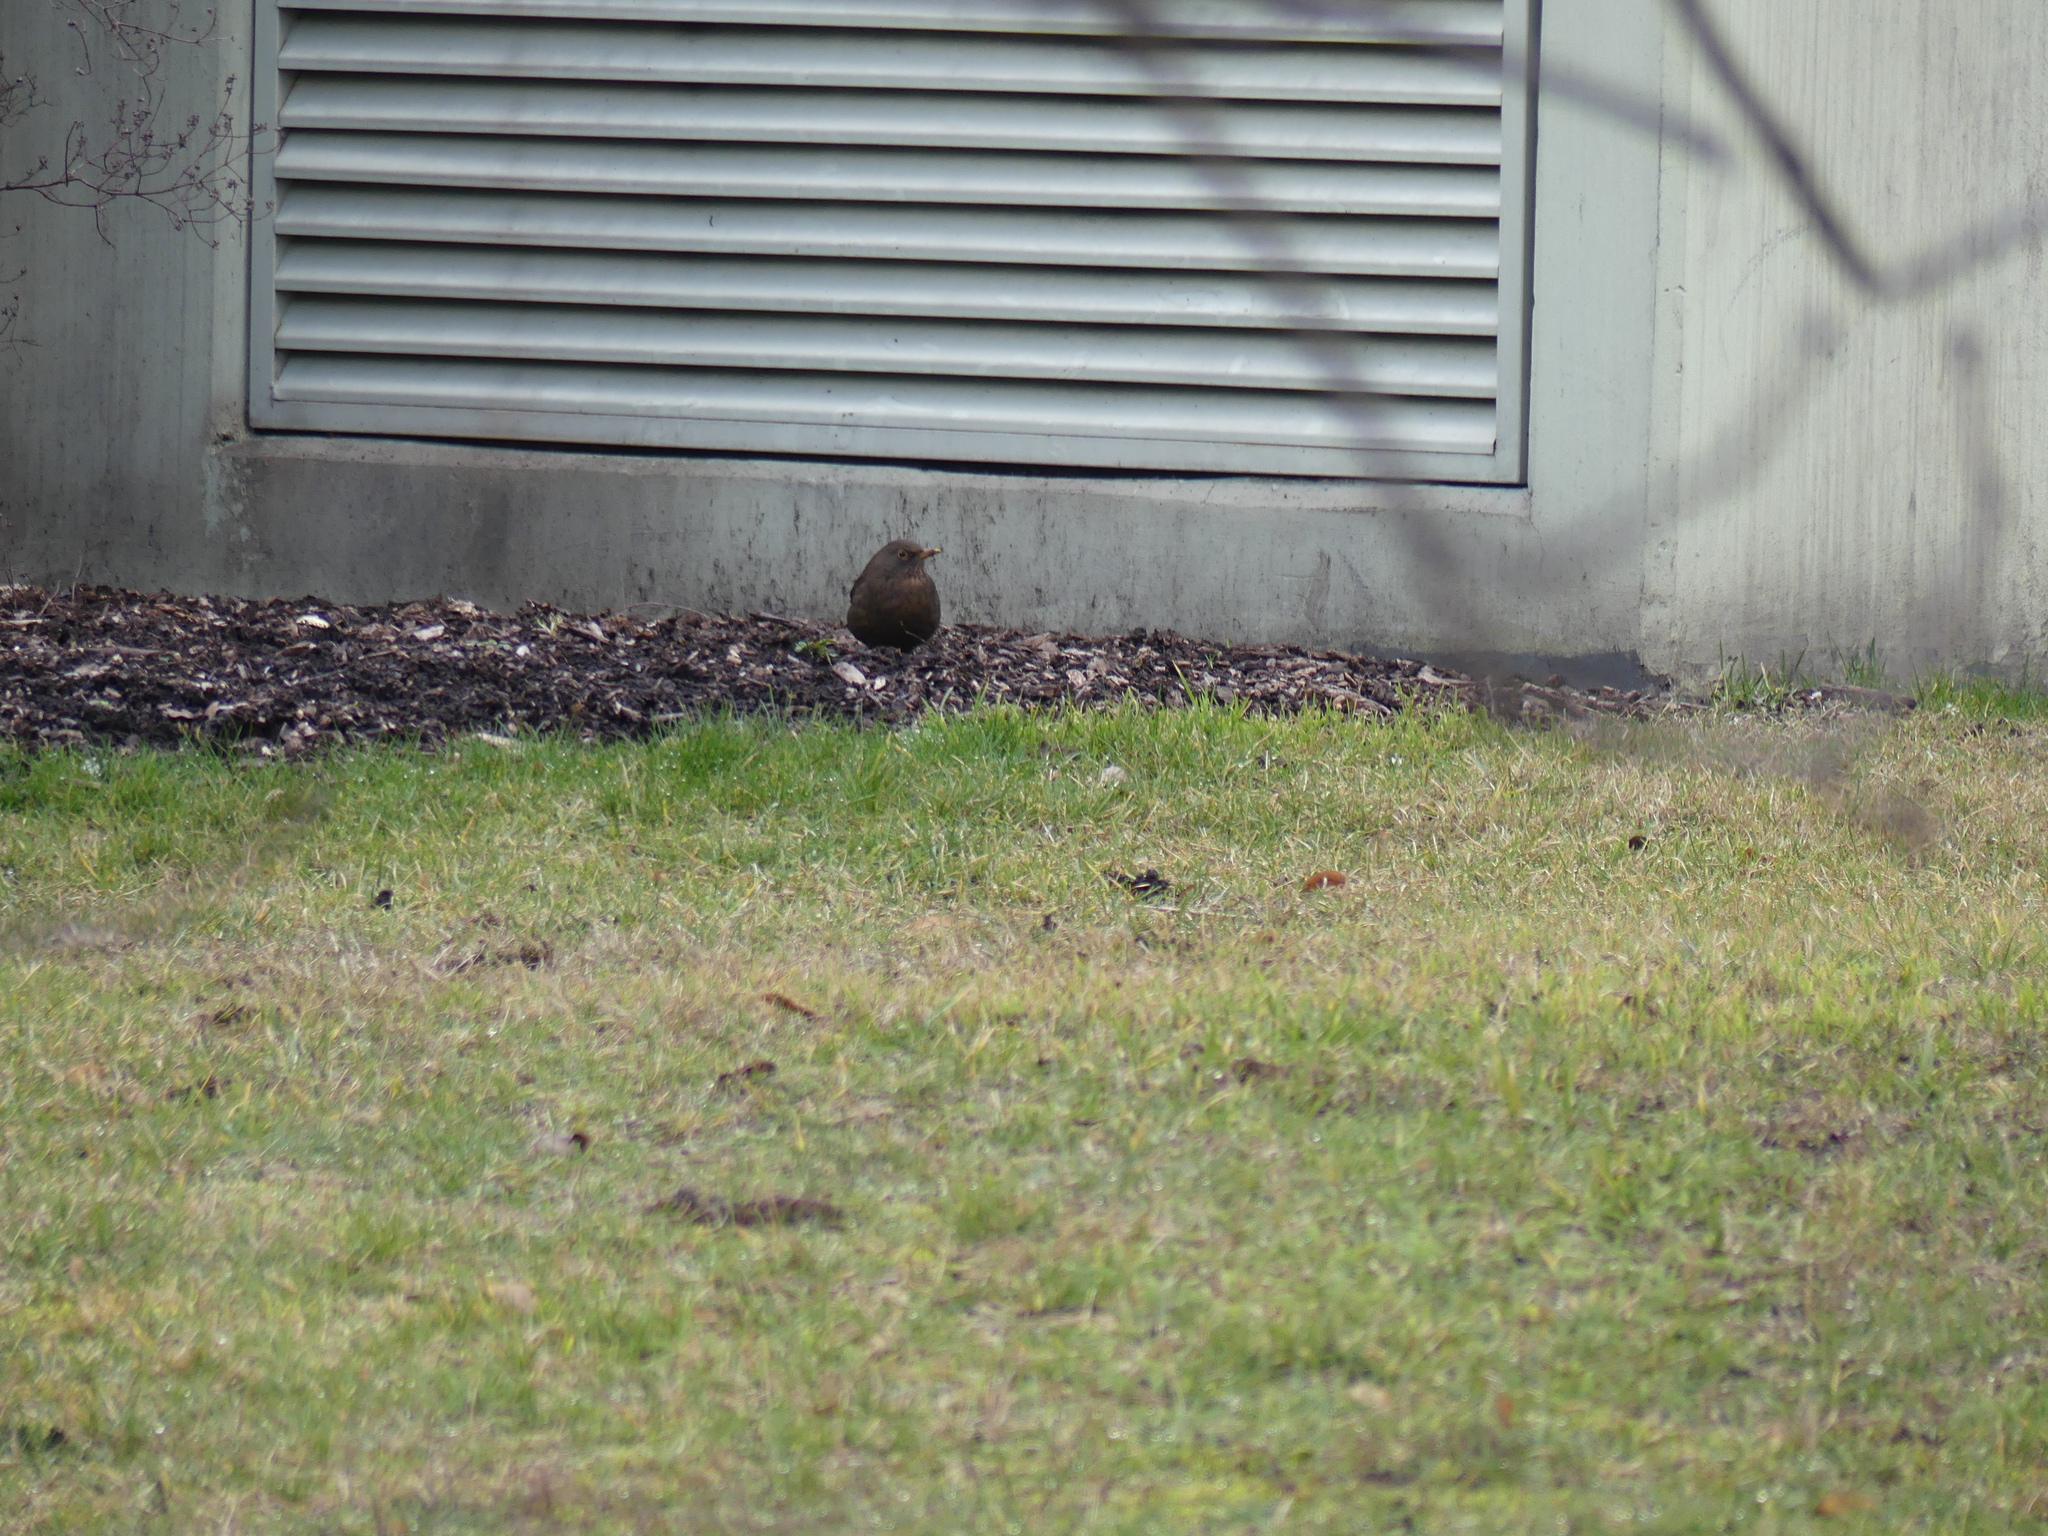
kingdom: Animalia
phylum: Chordata
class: Aves
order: Passeriformes
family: Turdidae
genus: Turdus
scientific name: Turdus merula
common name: Common blackbird
